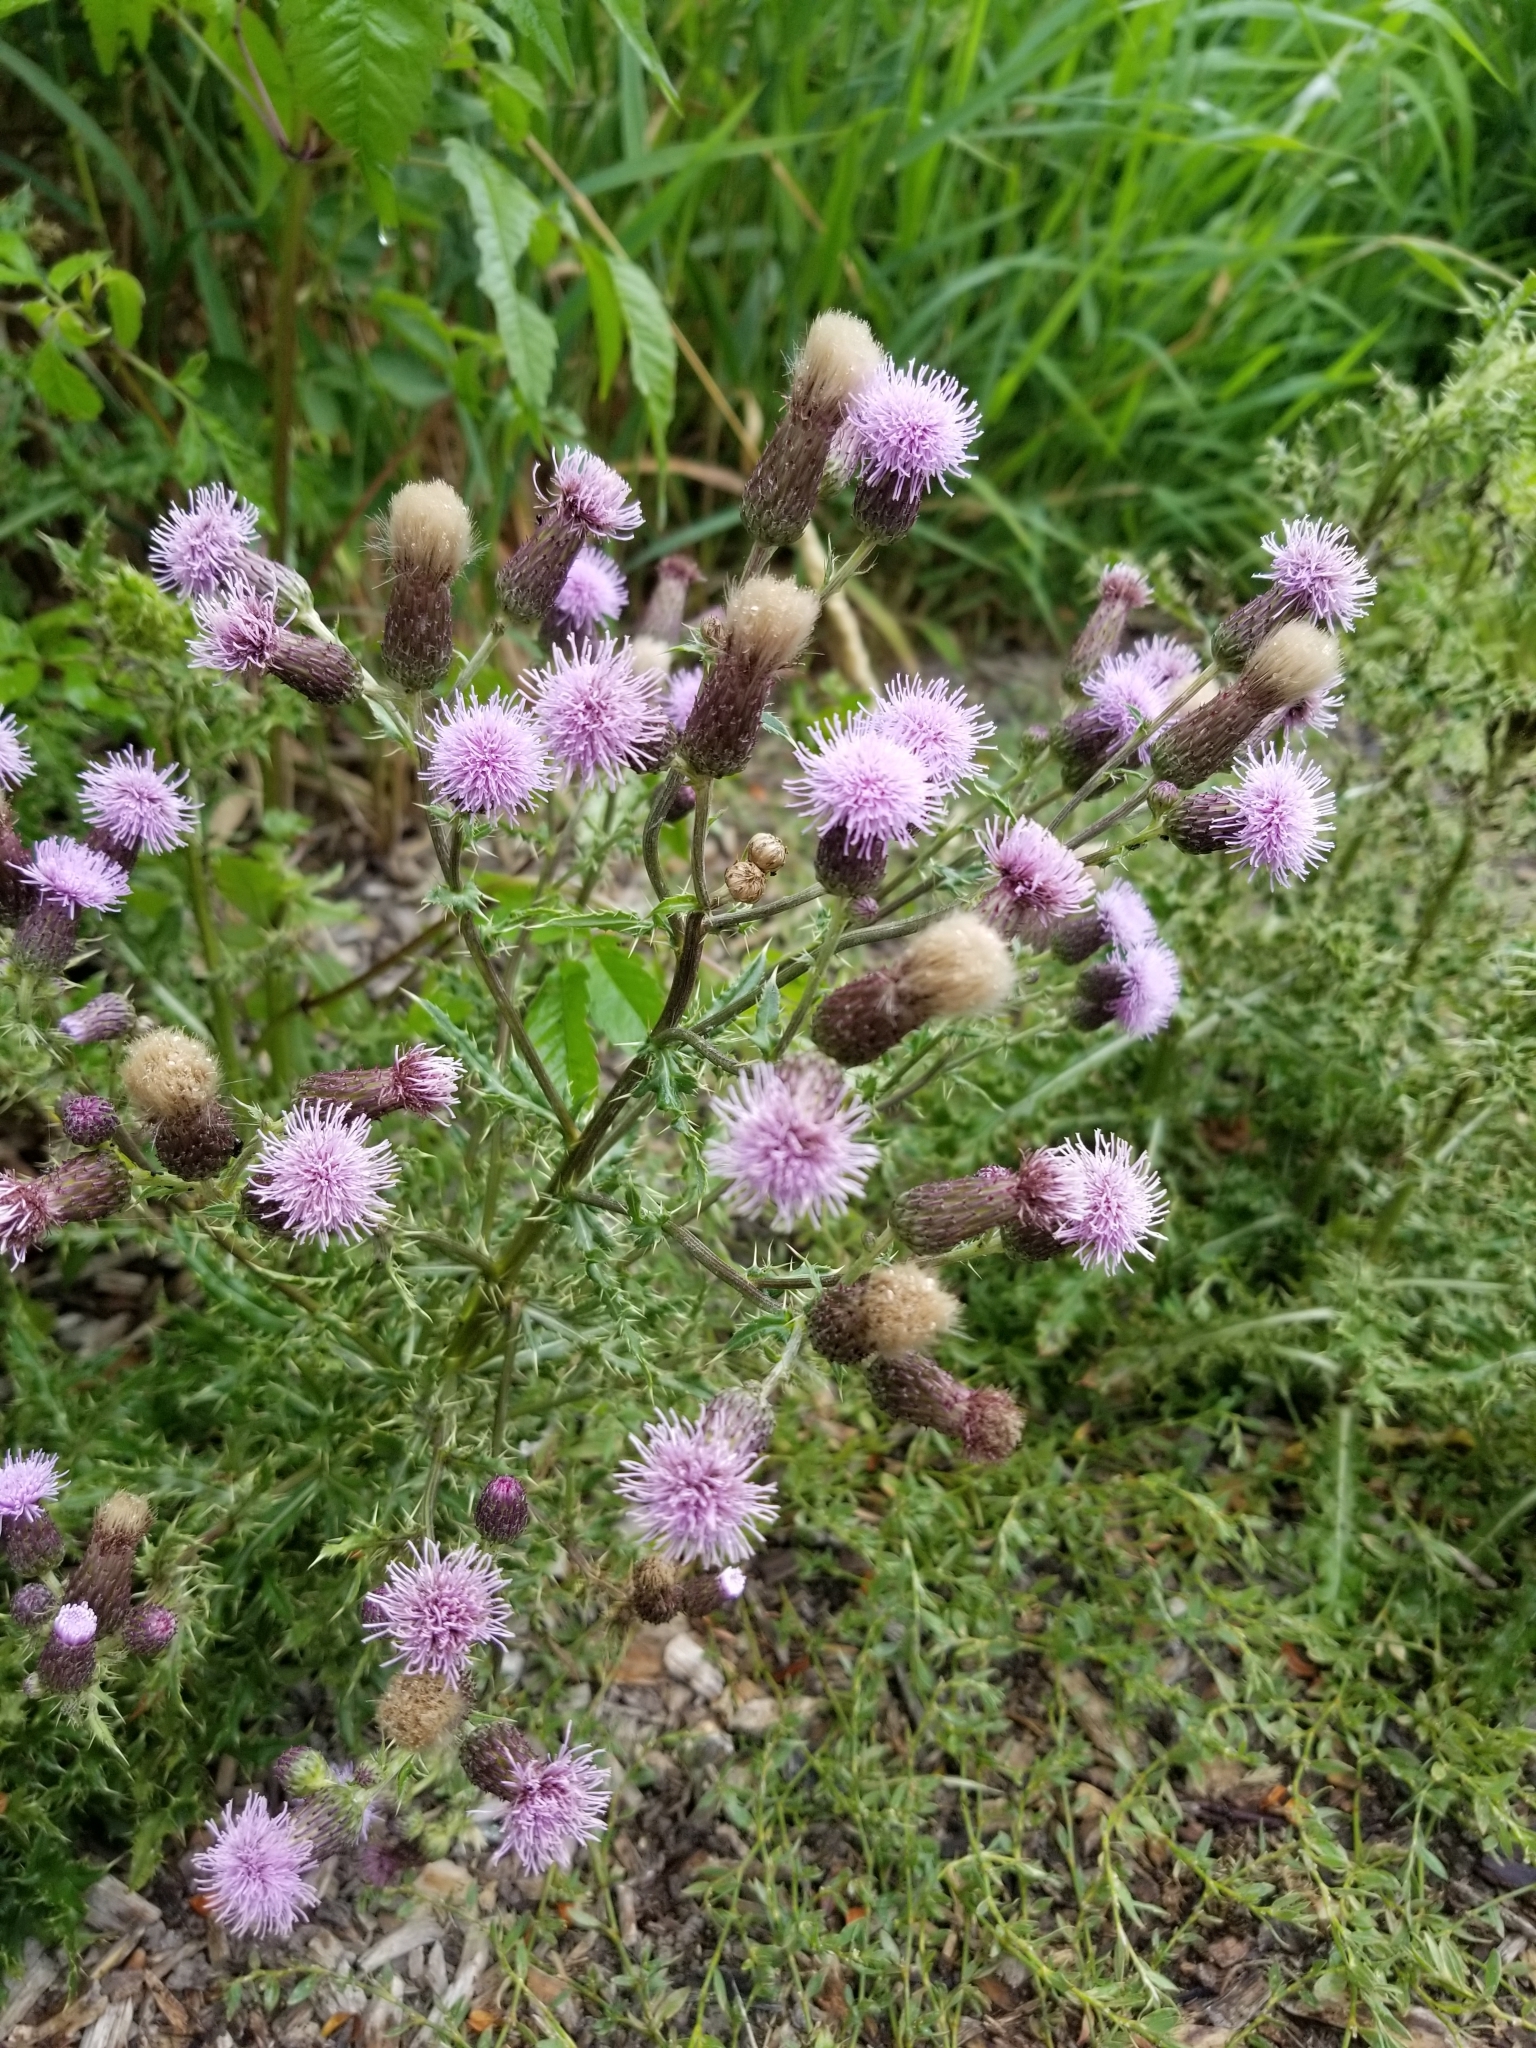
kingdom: Plantae
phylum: Tracheophyta
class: Magnoliopsida
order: Asterales
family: Asteraceae
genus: Cirsium
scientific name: Cirsium arvense
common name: Creeping thistle
